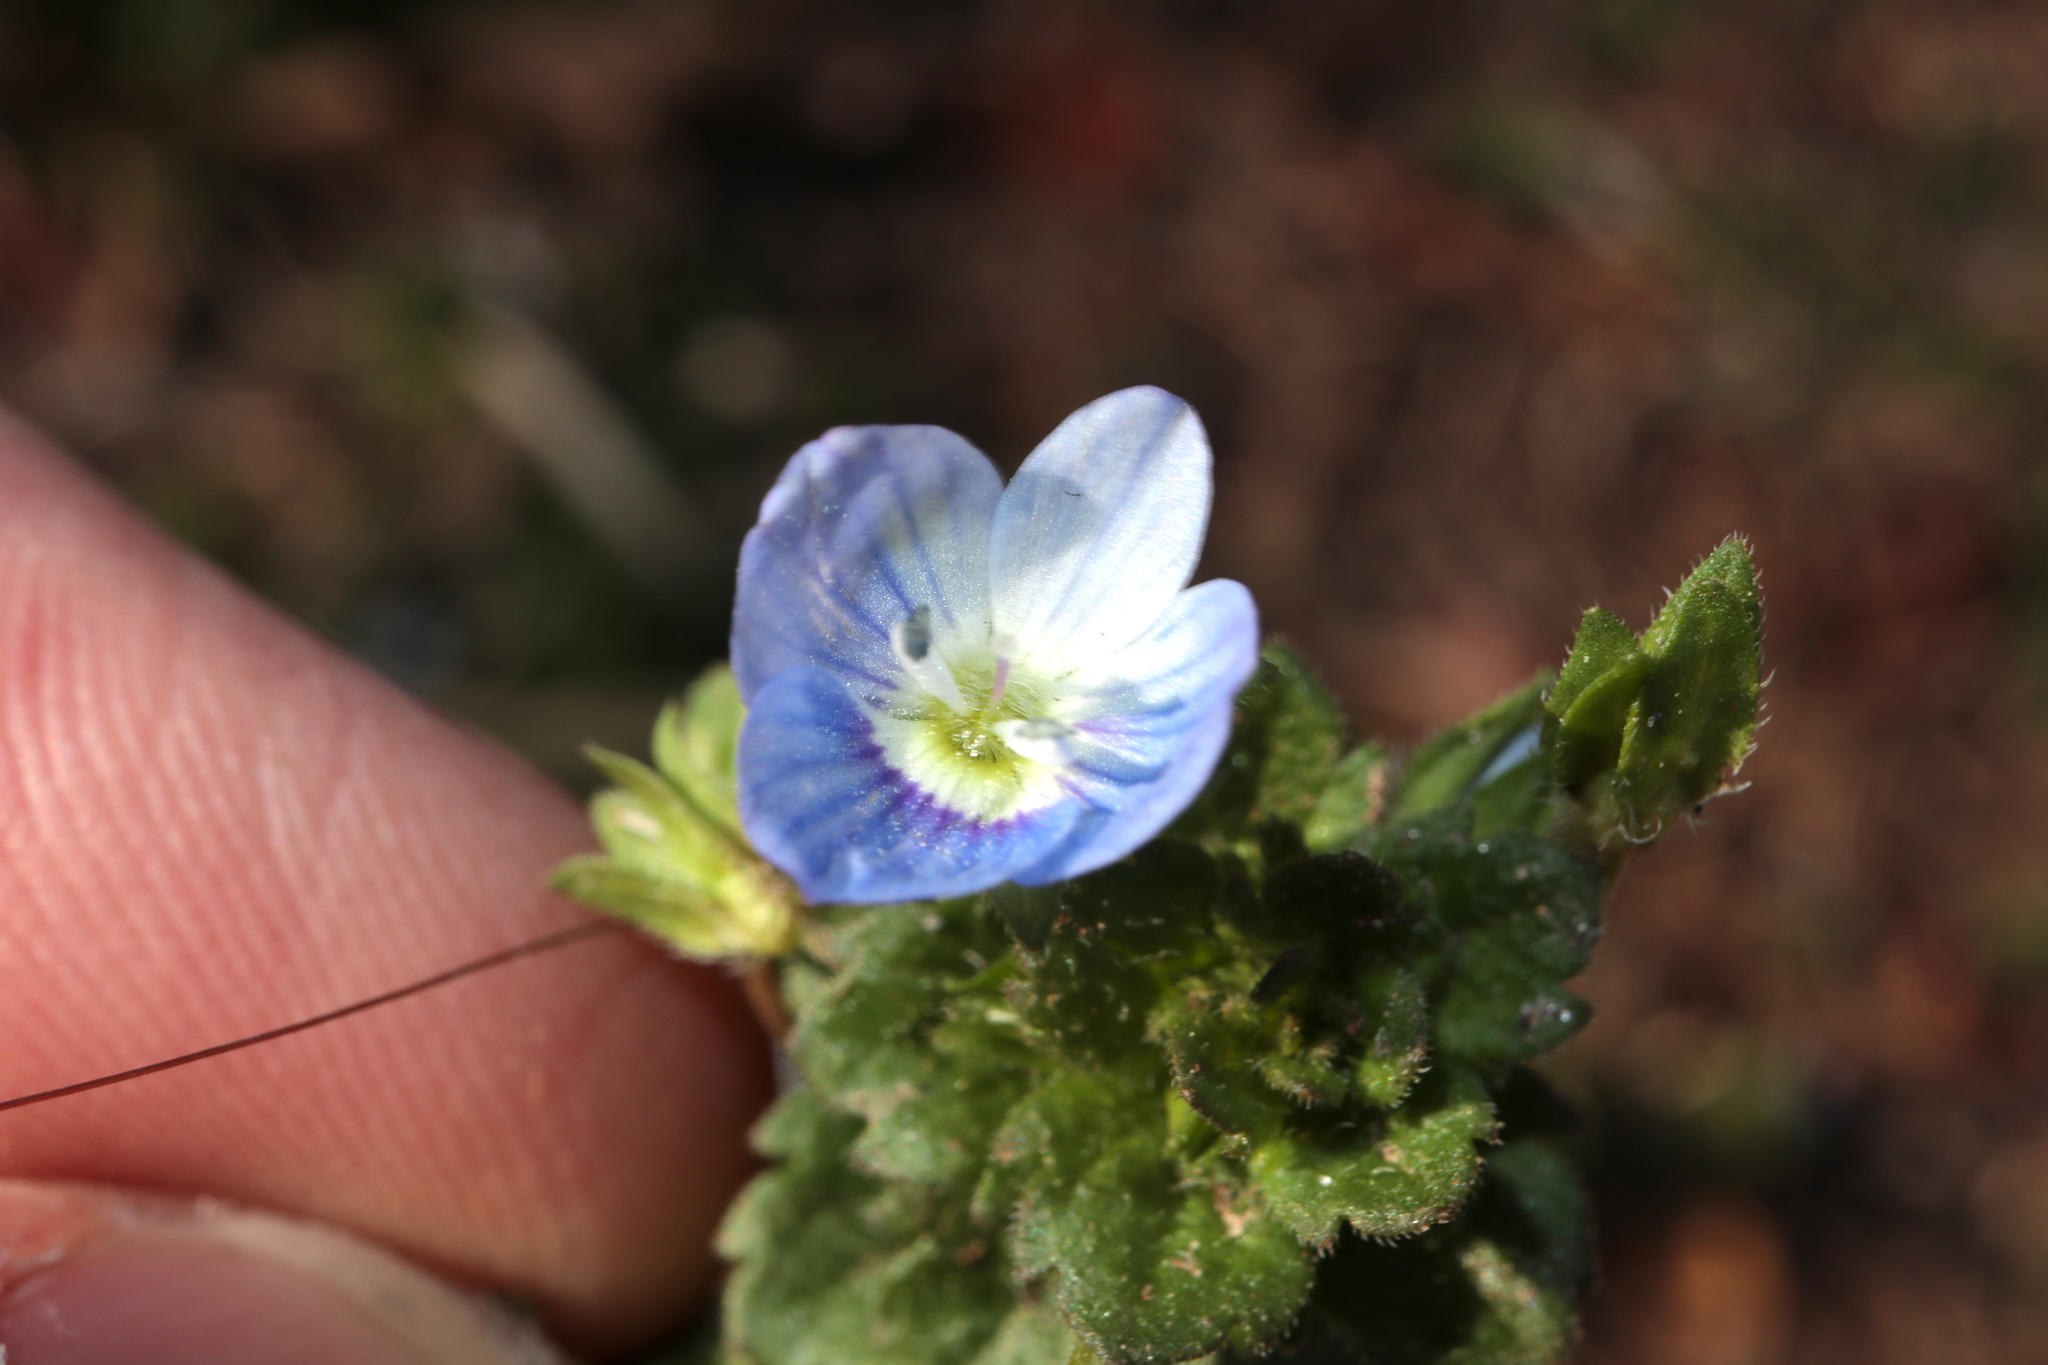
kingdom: Plantae
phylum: Tracheophyta
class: Magnoliopsida
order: Lamiales
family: Plantaginaceae
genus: Veronica
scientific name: Veronica persica
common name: Common field-speedwell
